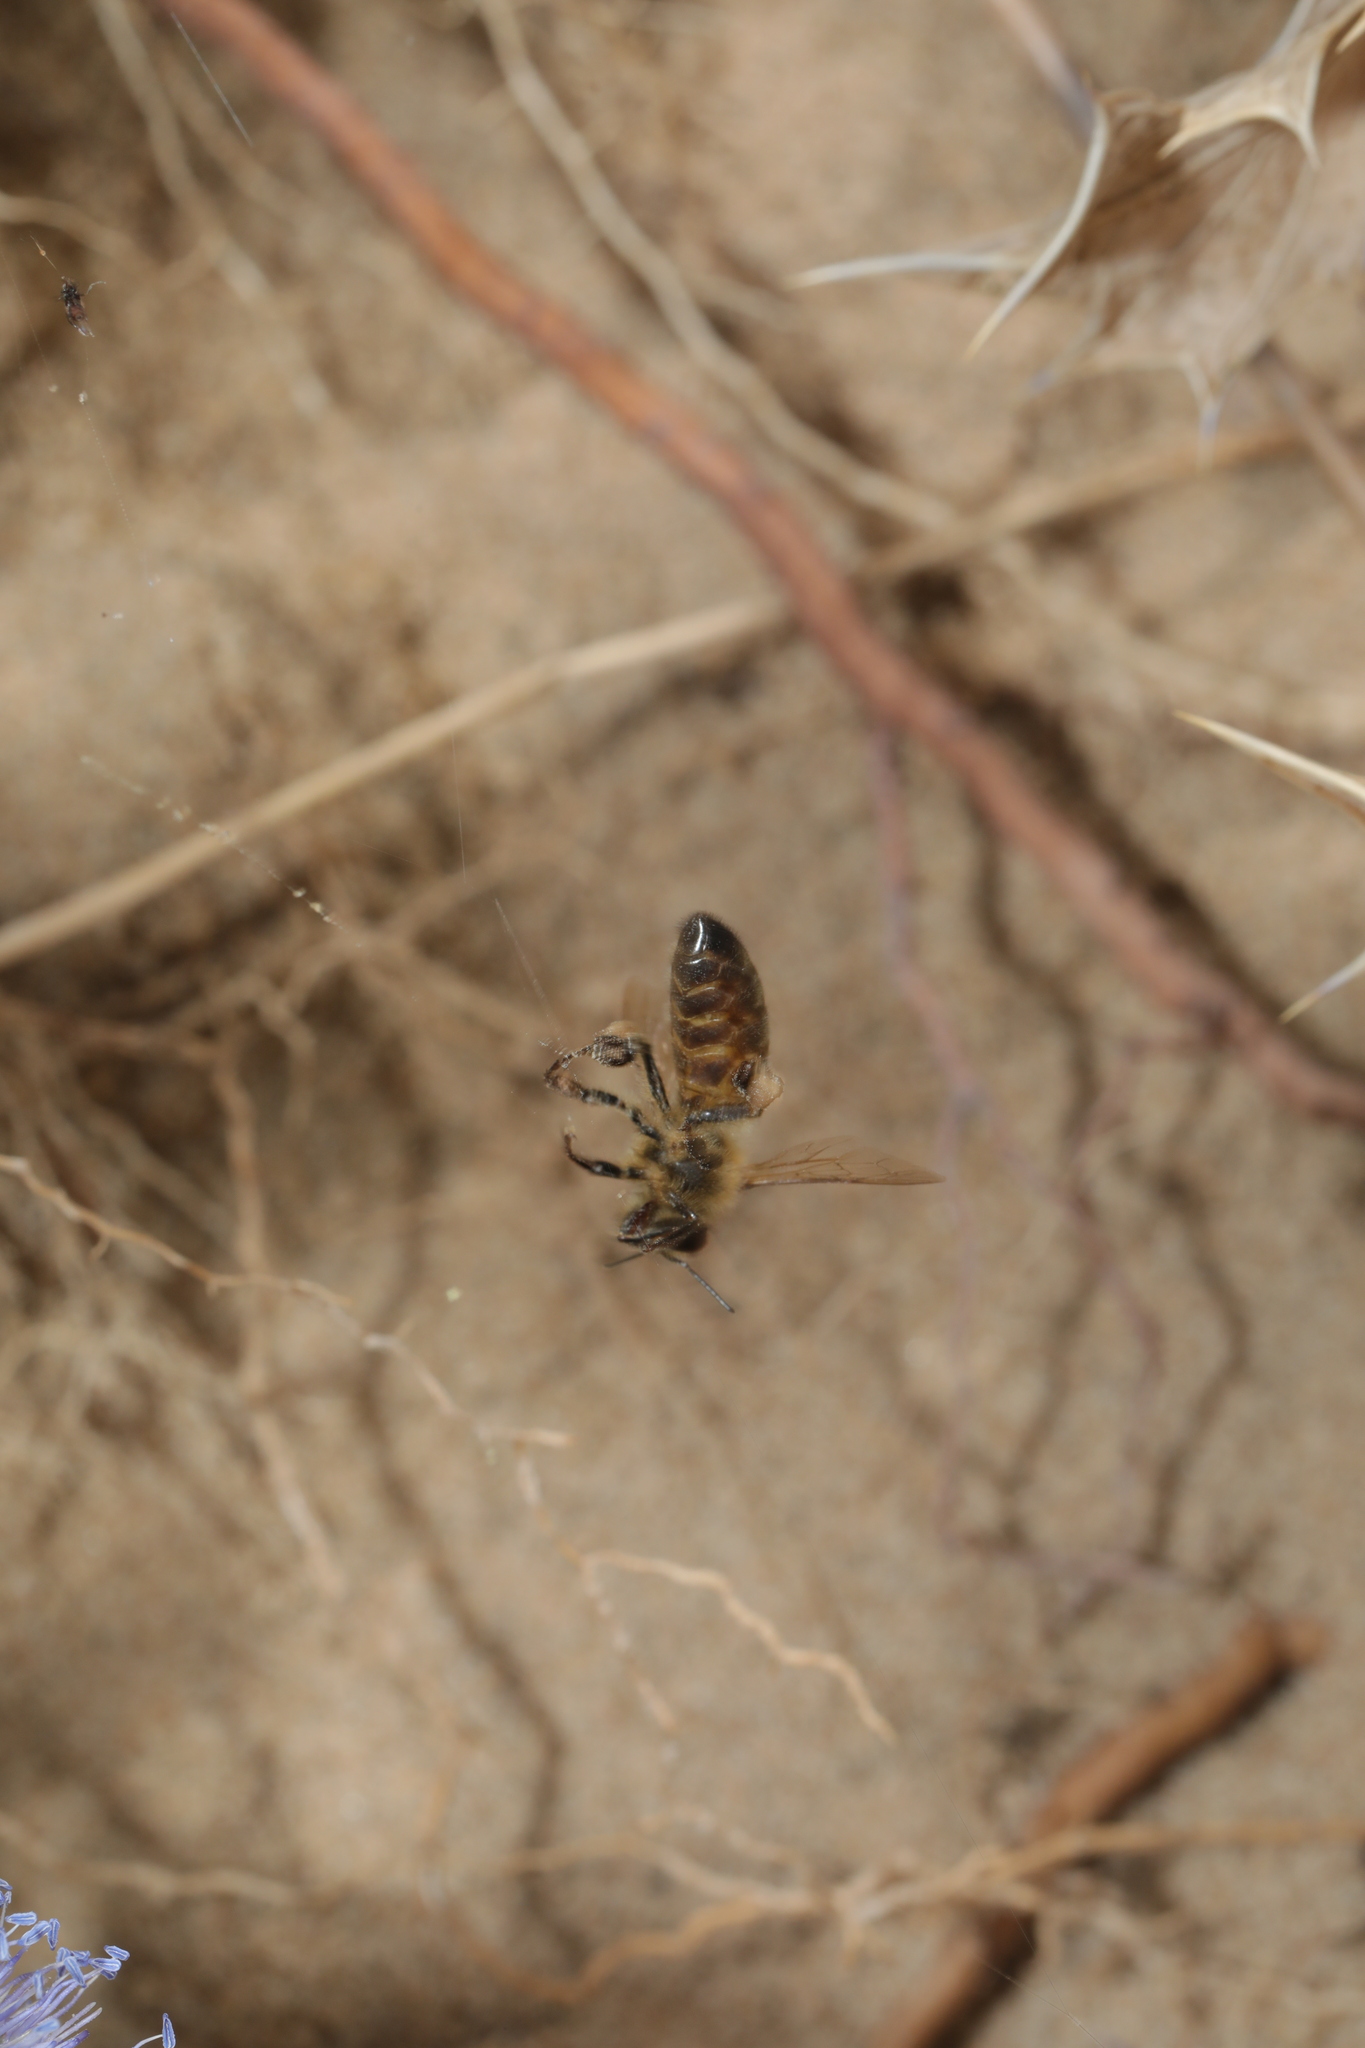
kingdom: Animalia
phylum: Arthropoda
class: Insecta
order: Hymenoptera
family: Apidae
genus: Apis
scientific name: Apis mellifera
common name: Honey bee
